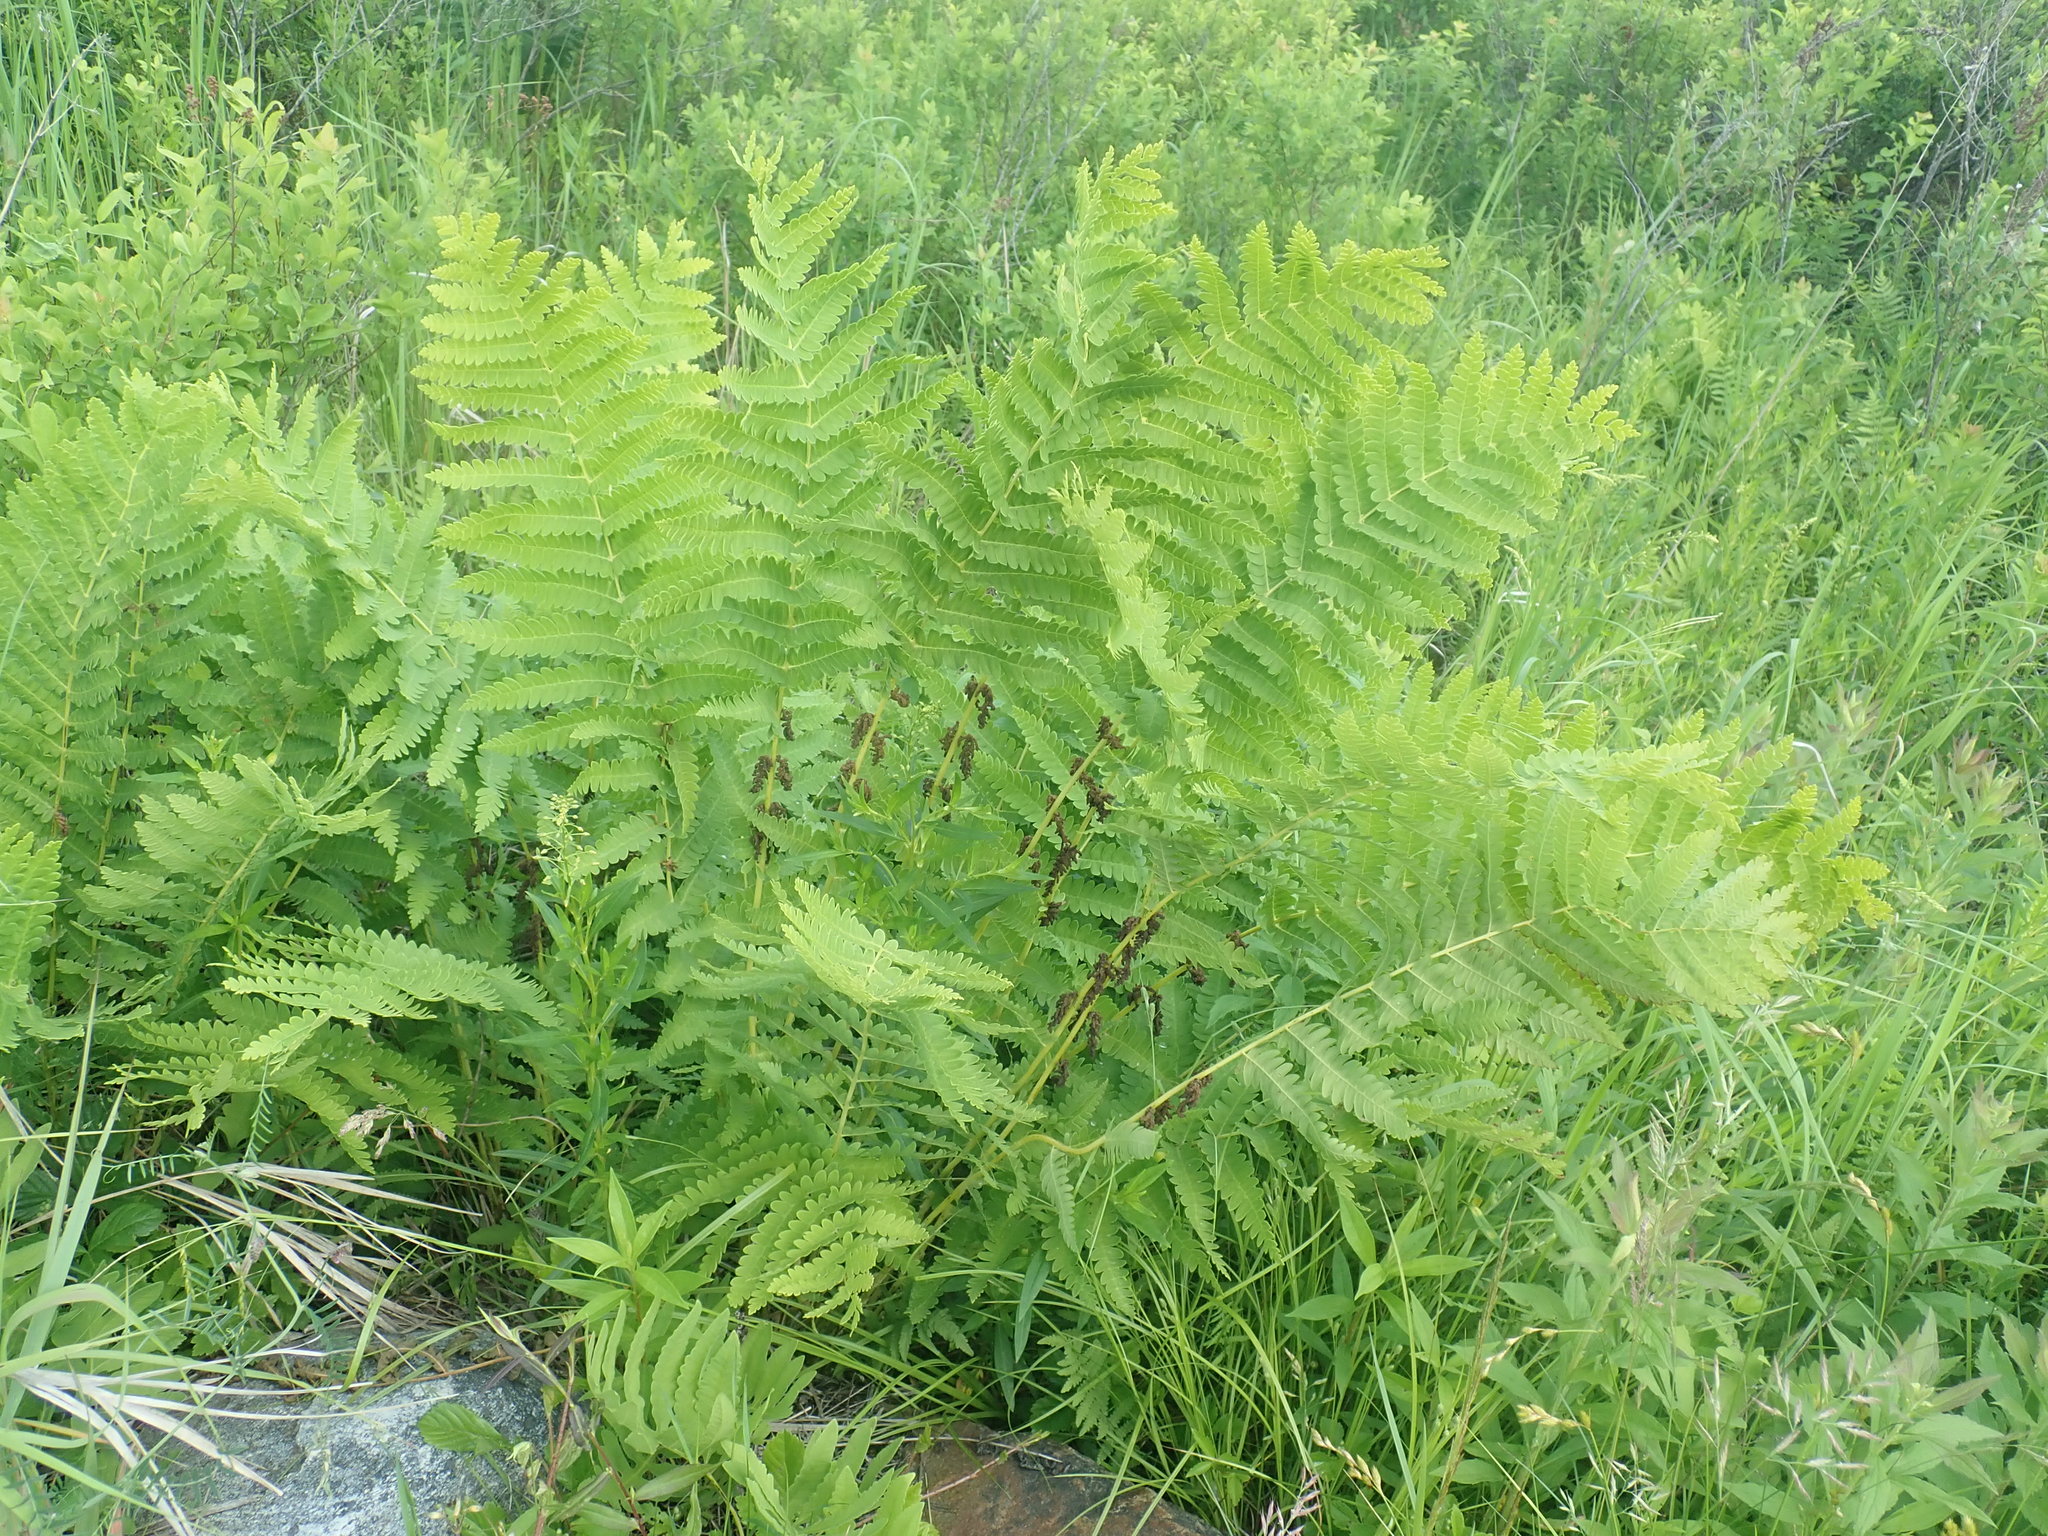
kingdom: Plantae
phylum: Tracheophyta
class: Polypodiopsida
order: Osmundales
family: Osmundaceae
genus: Claytosmunda
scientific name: Claytosmunda claytoniana
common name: Clayton's fern
